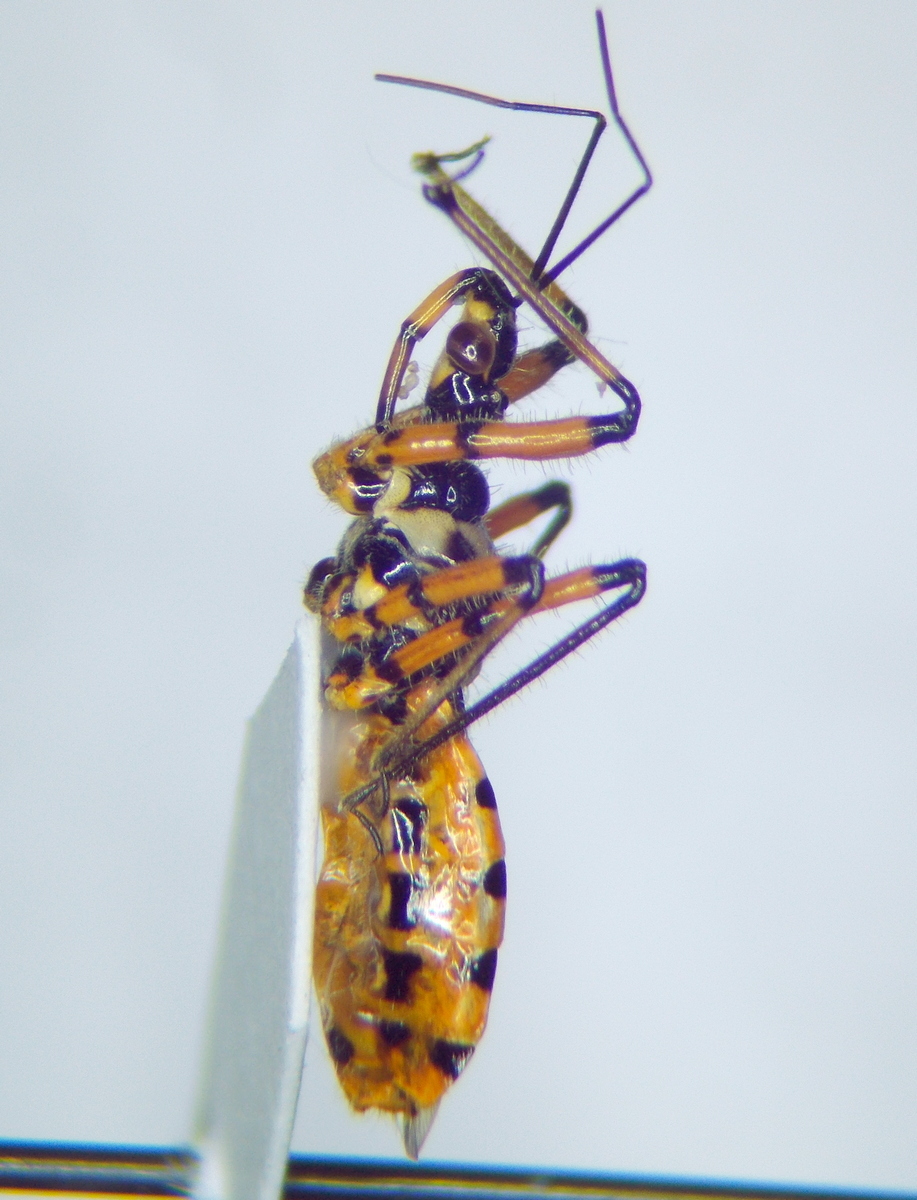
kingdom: Animalia
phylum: Arthropoda
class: Insecta
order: Hemiptera
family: Reduviidae
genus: Sphedanolestes
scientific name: Sphedanolestes pulchellus
